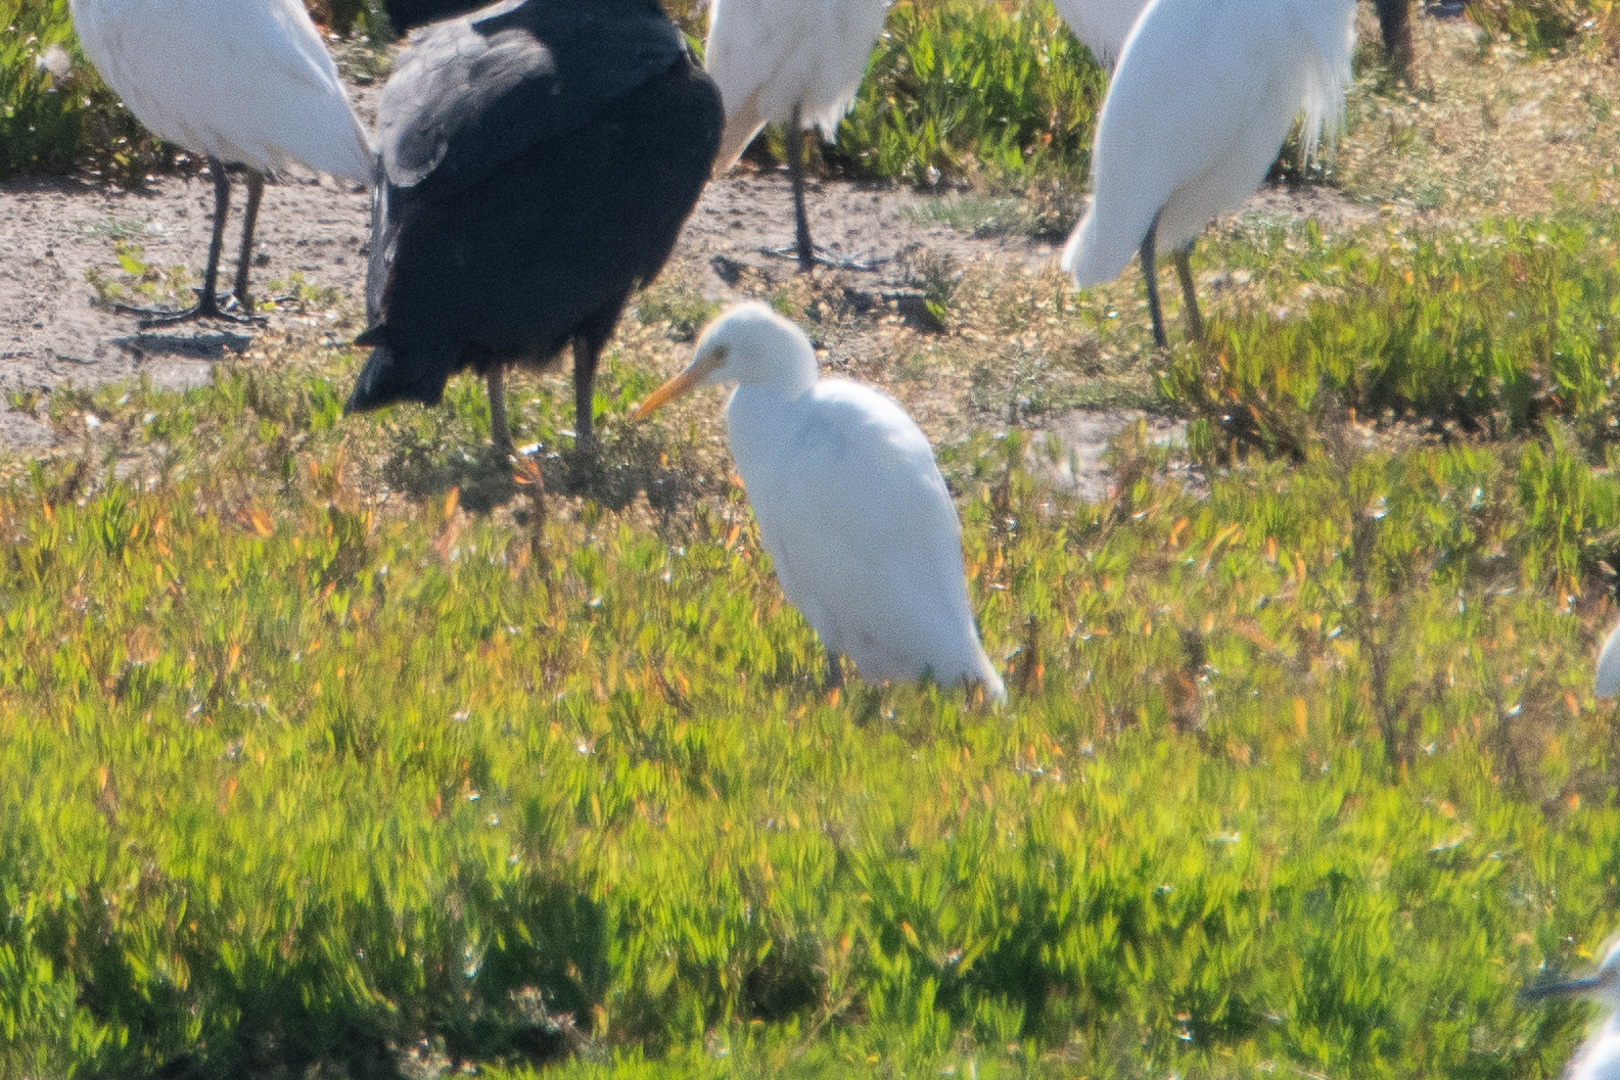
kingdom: Animalia
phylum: Chordata
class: Aves
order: Pelecaniformes
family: Ardeidae
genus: Bubulcus
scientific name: Bubulcus ibis
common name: Cattle egret
